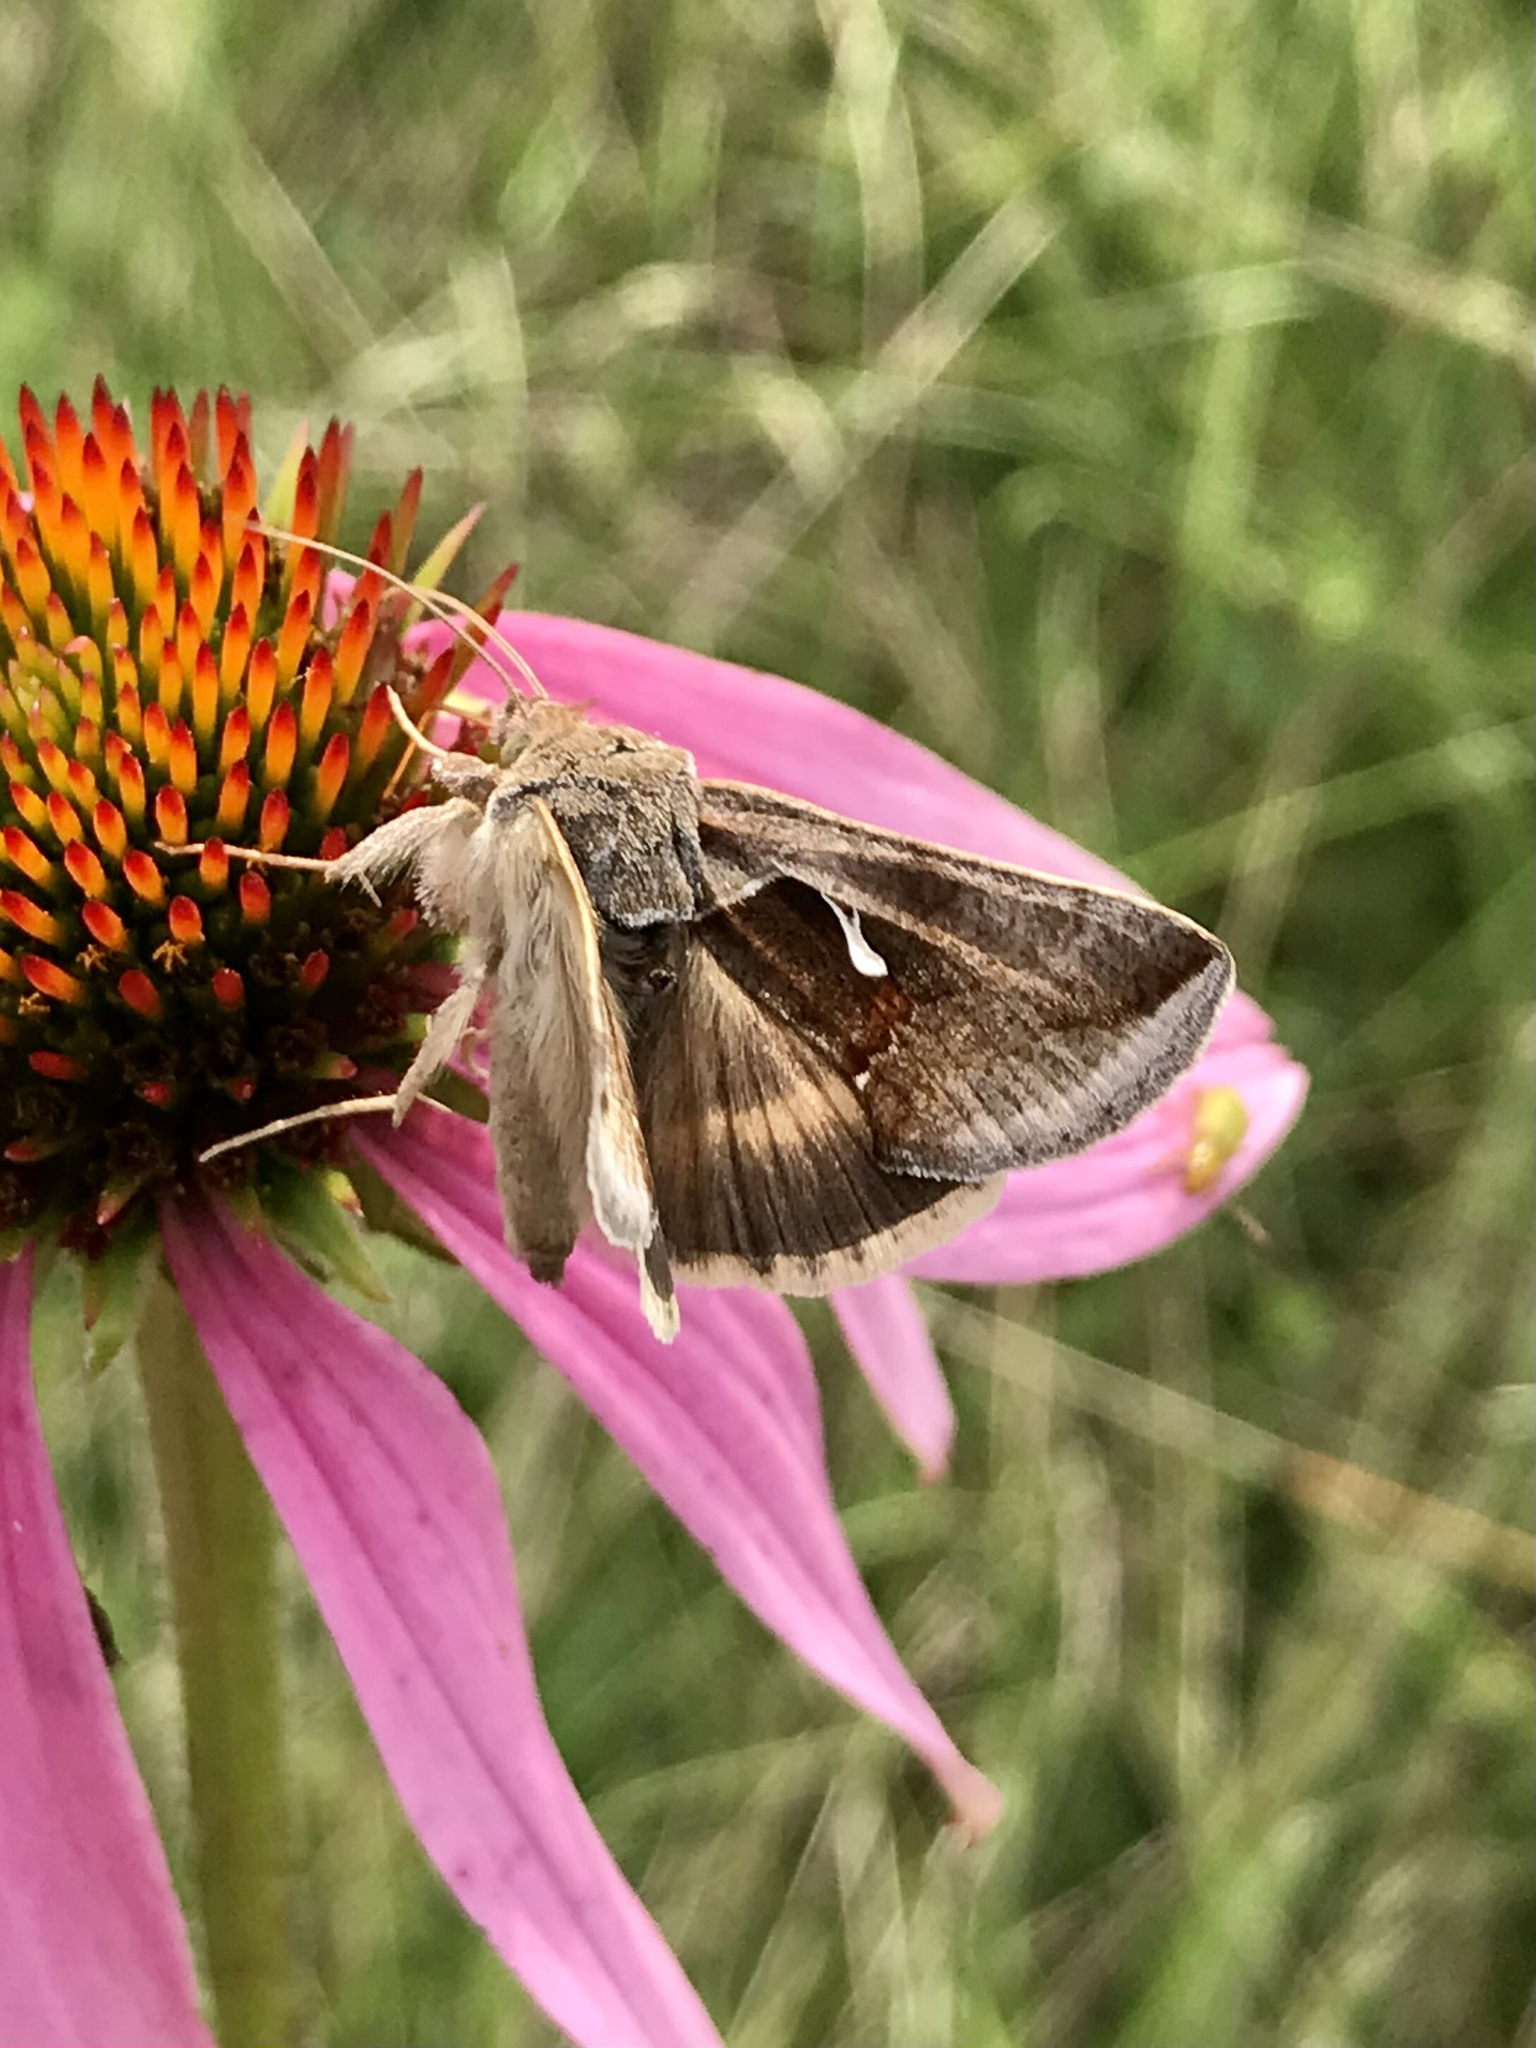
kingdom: Animalia
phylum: Arthropoda
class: Insecta
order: Lepidoptera
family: Noctuidae
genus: Anagrapha
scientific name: Anagrapha falcifera
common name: Celery looper
